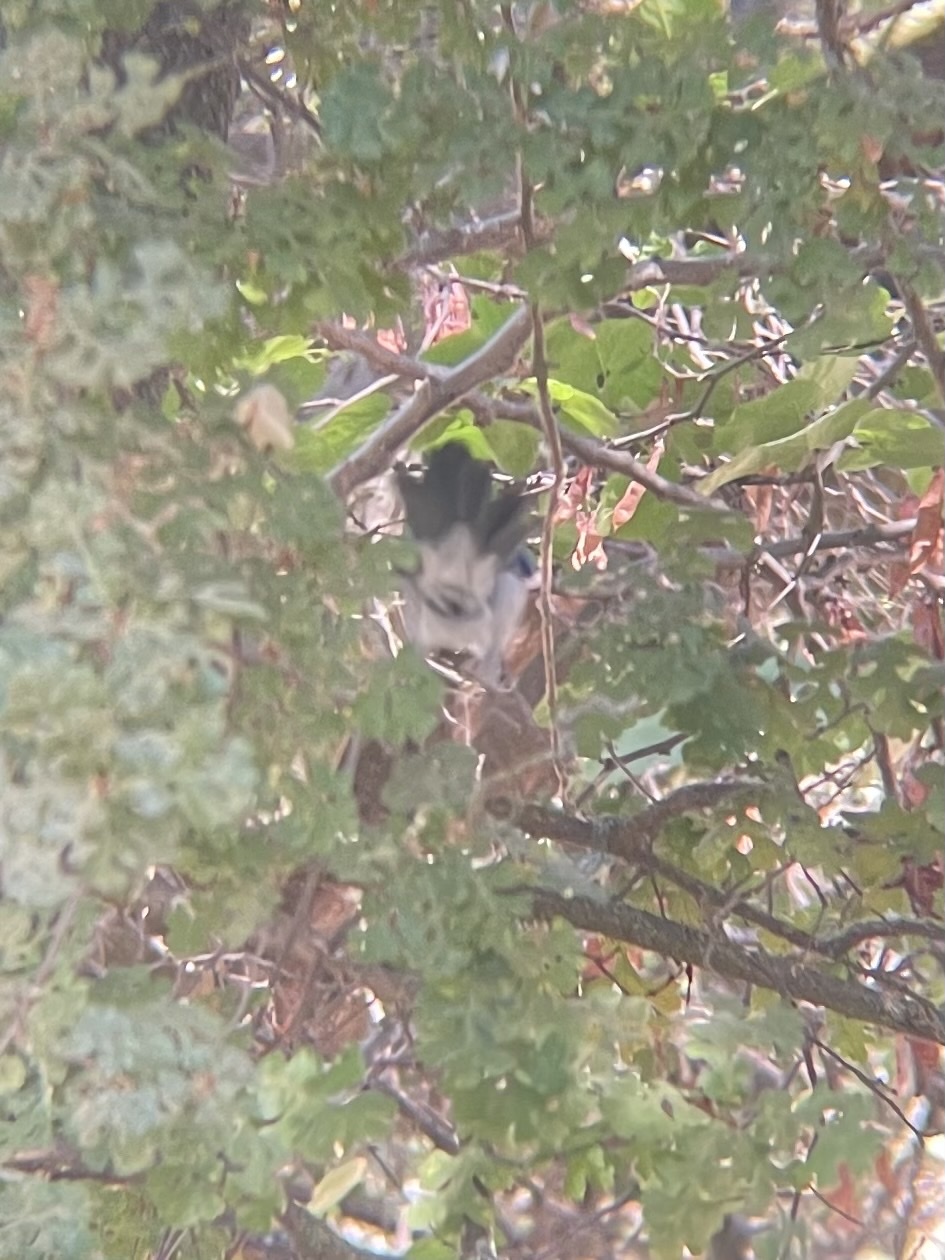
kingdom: Animalia
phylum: Chordata
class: Aves
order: Passeriformes
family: Corvidae
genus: Aphelocoma
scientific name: Aphelocoma californica
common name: California scrub-jay
